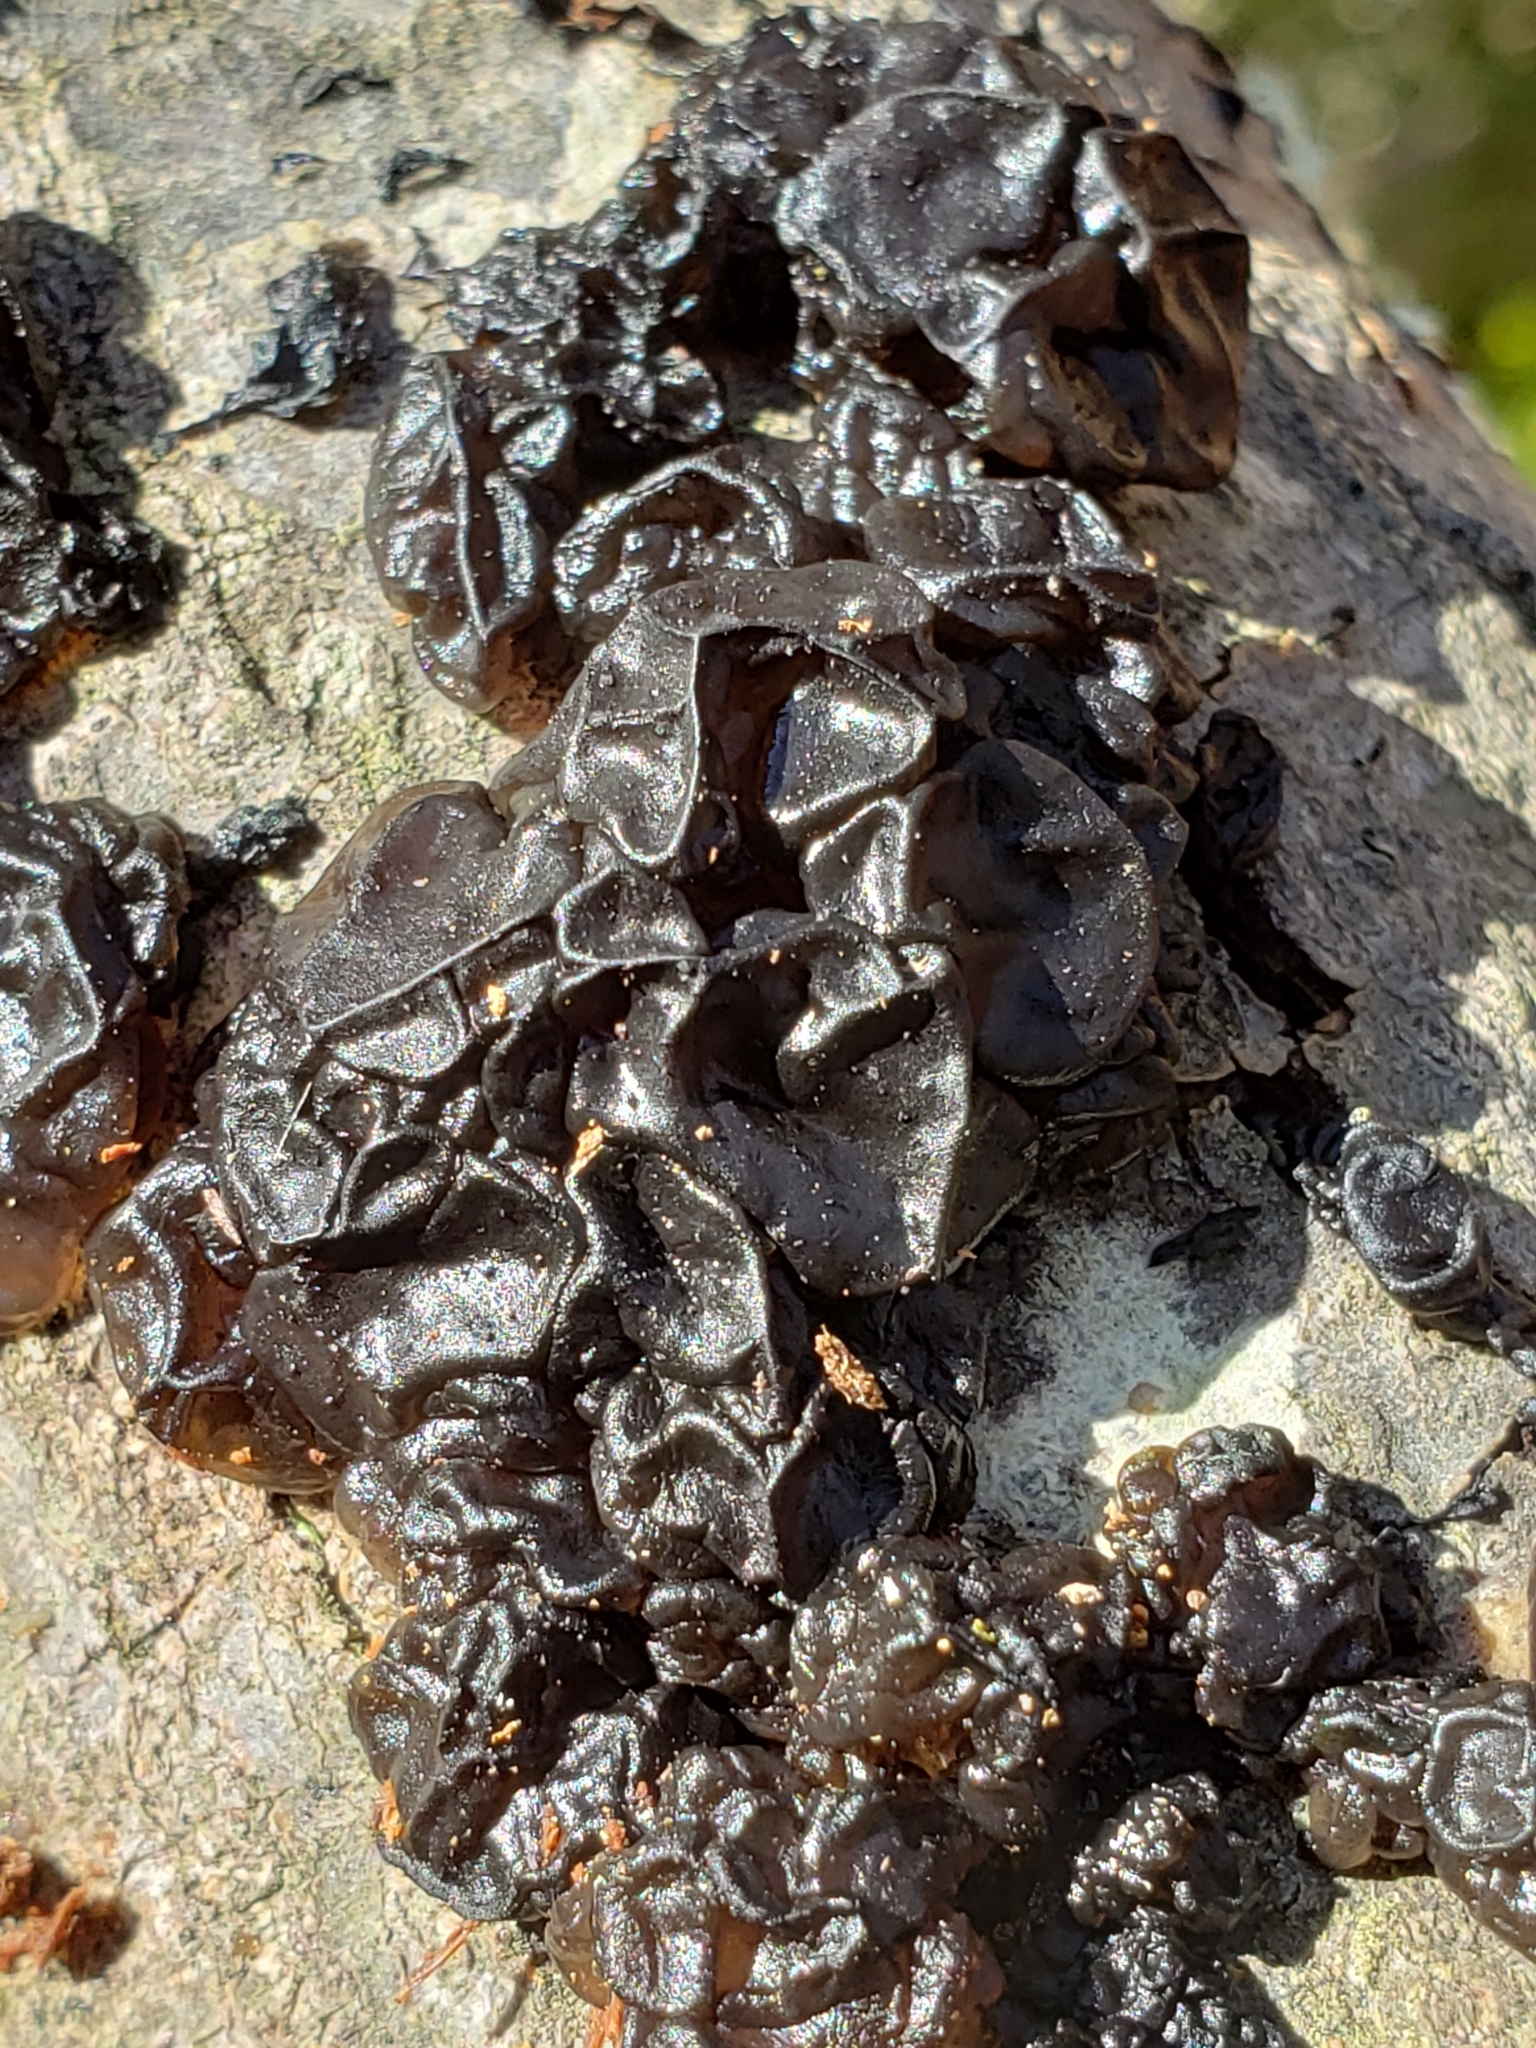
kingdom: Fungi
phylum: Basidiomycota
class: Agaricomycetes
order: Auriculariales
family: Auriculariaceae
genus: Exidia
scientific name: Exidia
